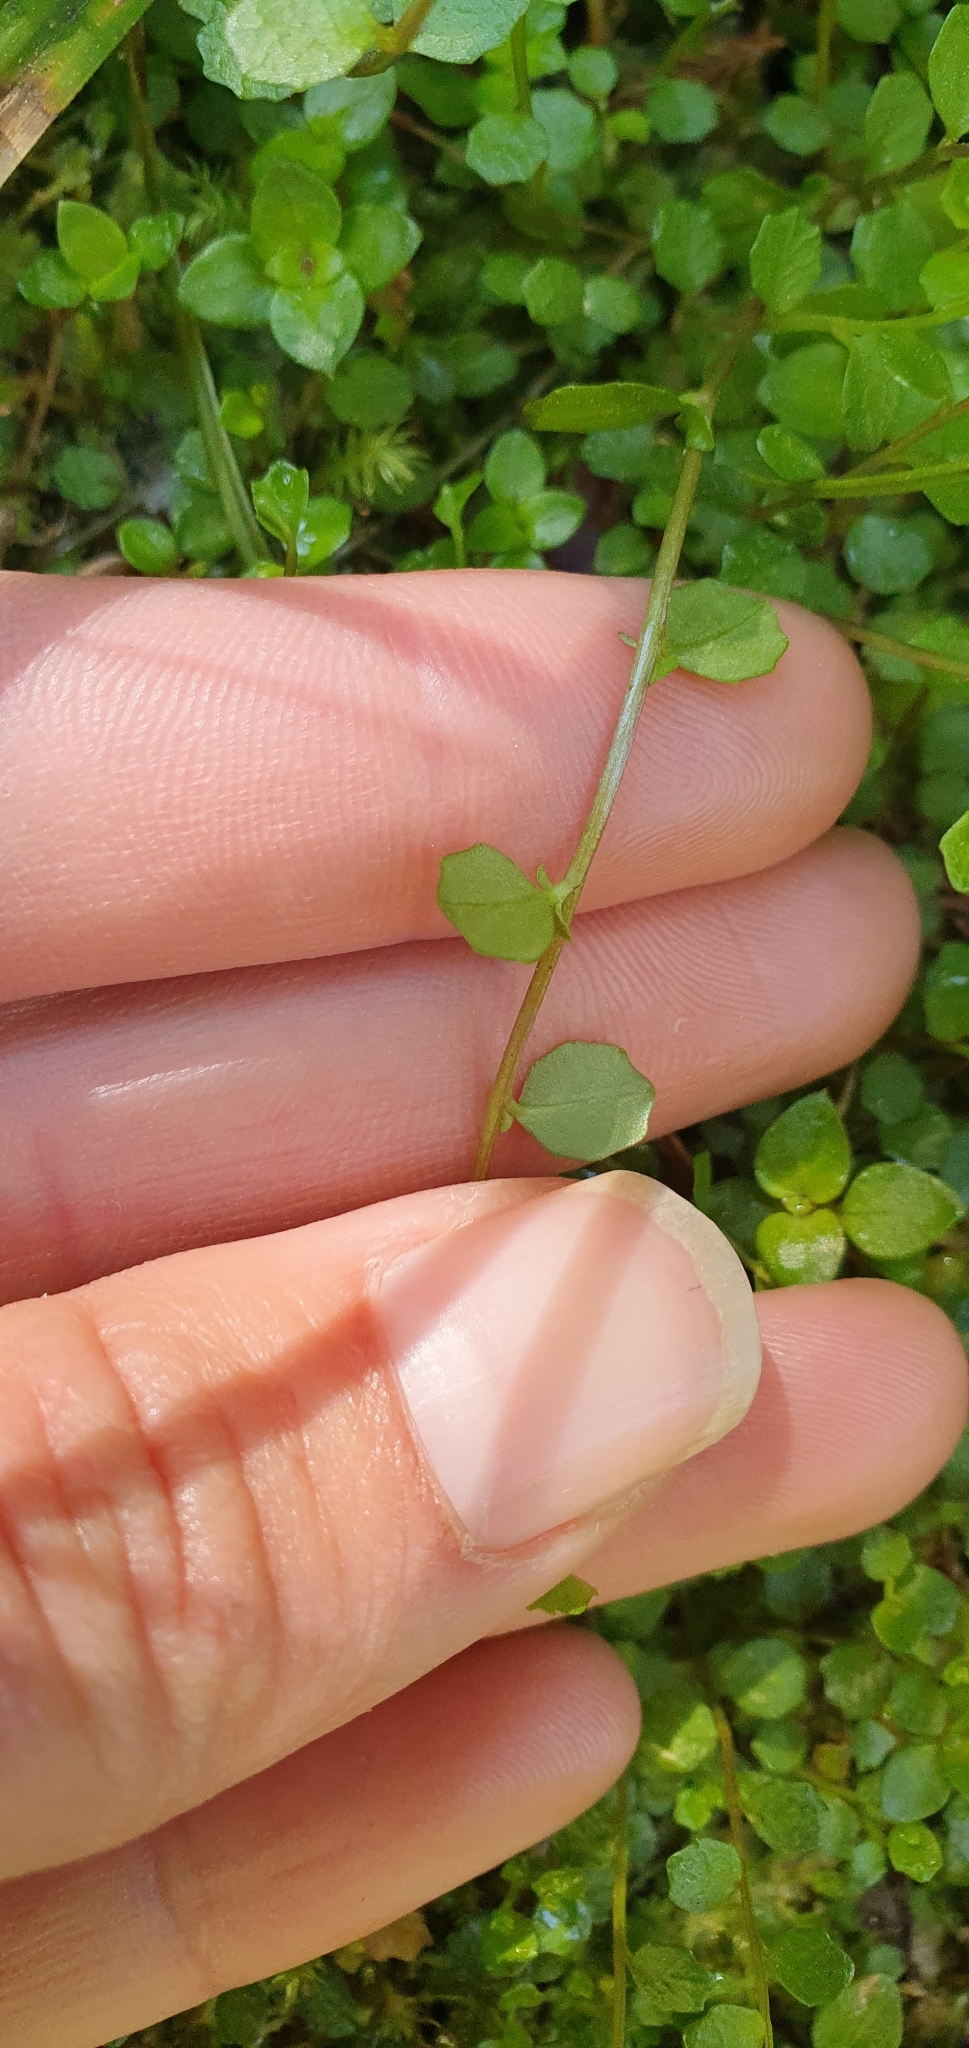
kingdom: Plantae
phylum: Tracheophyta
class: Magnoliopsida
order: Asterales
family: Campanulaceae
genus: Lobelia
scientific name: Lobelia angulata
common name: Lawn lobelia
